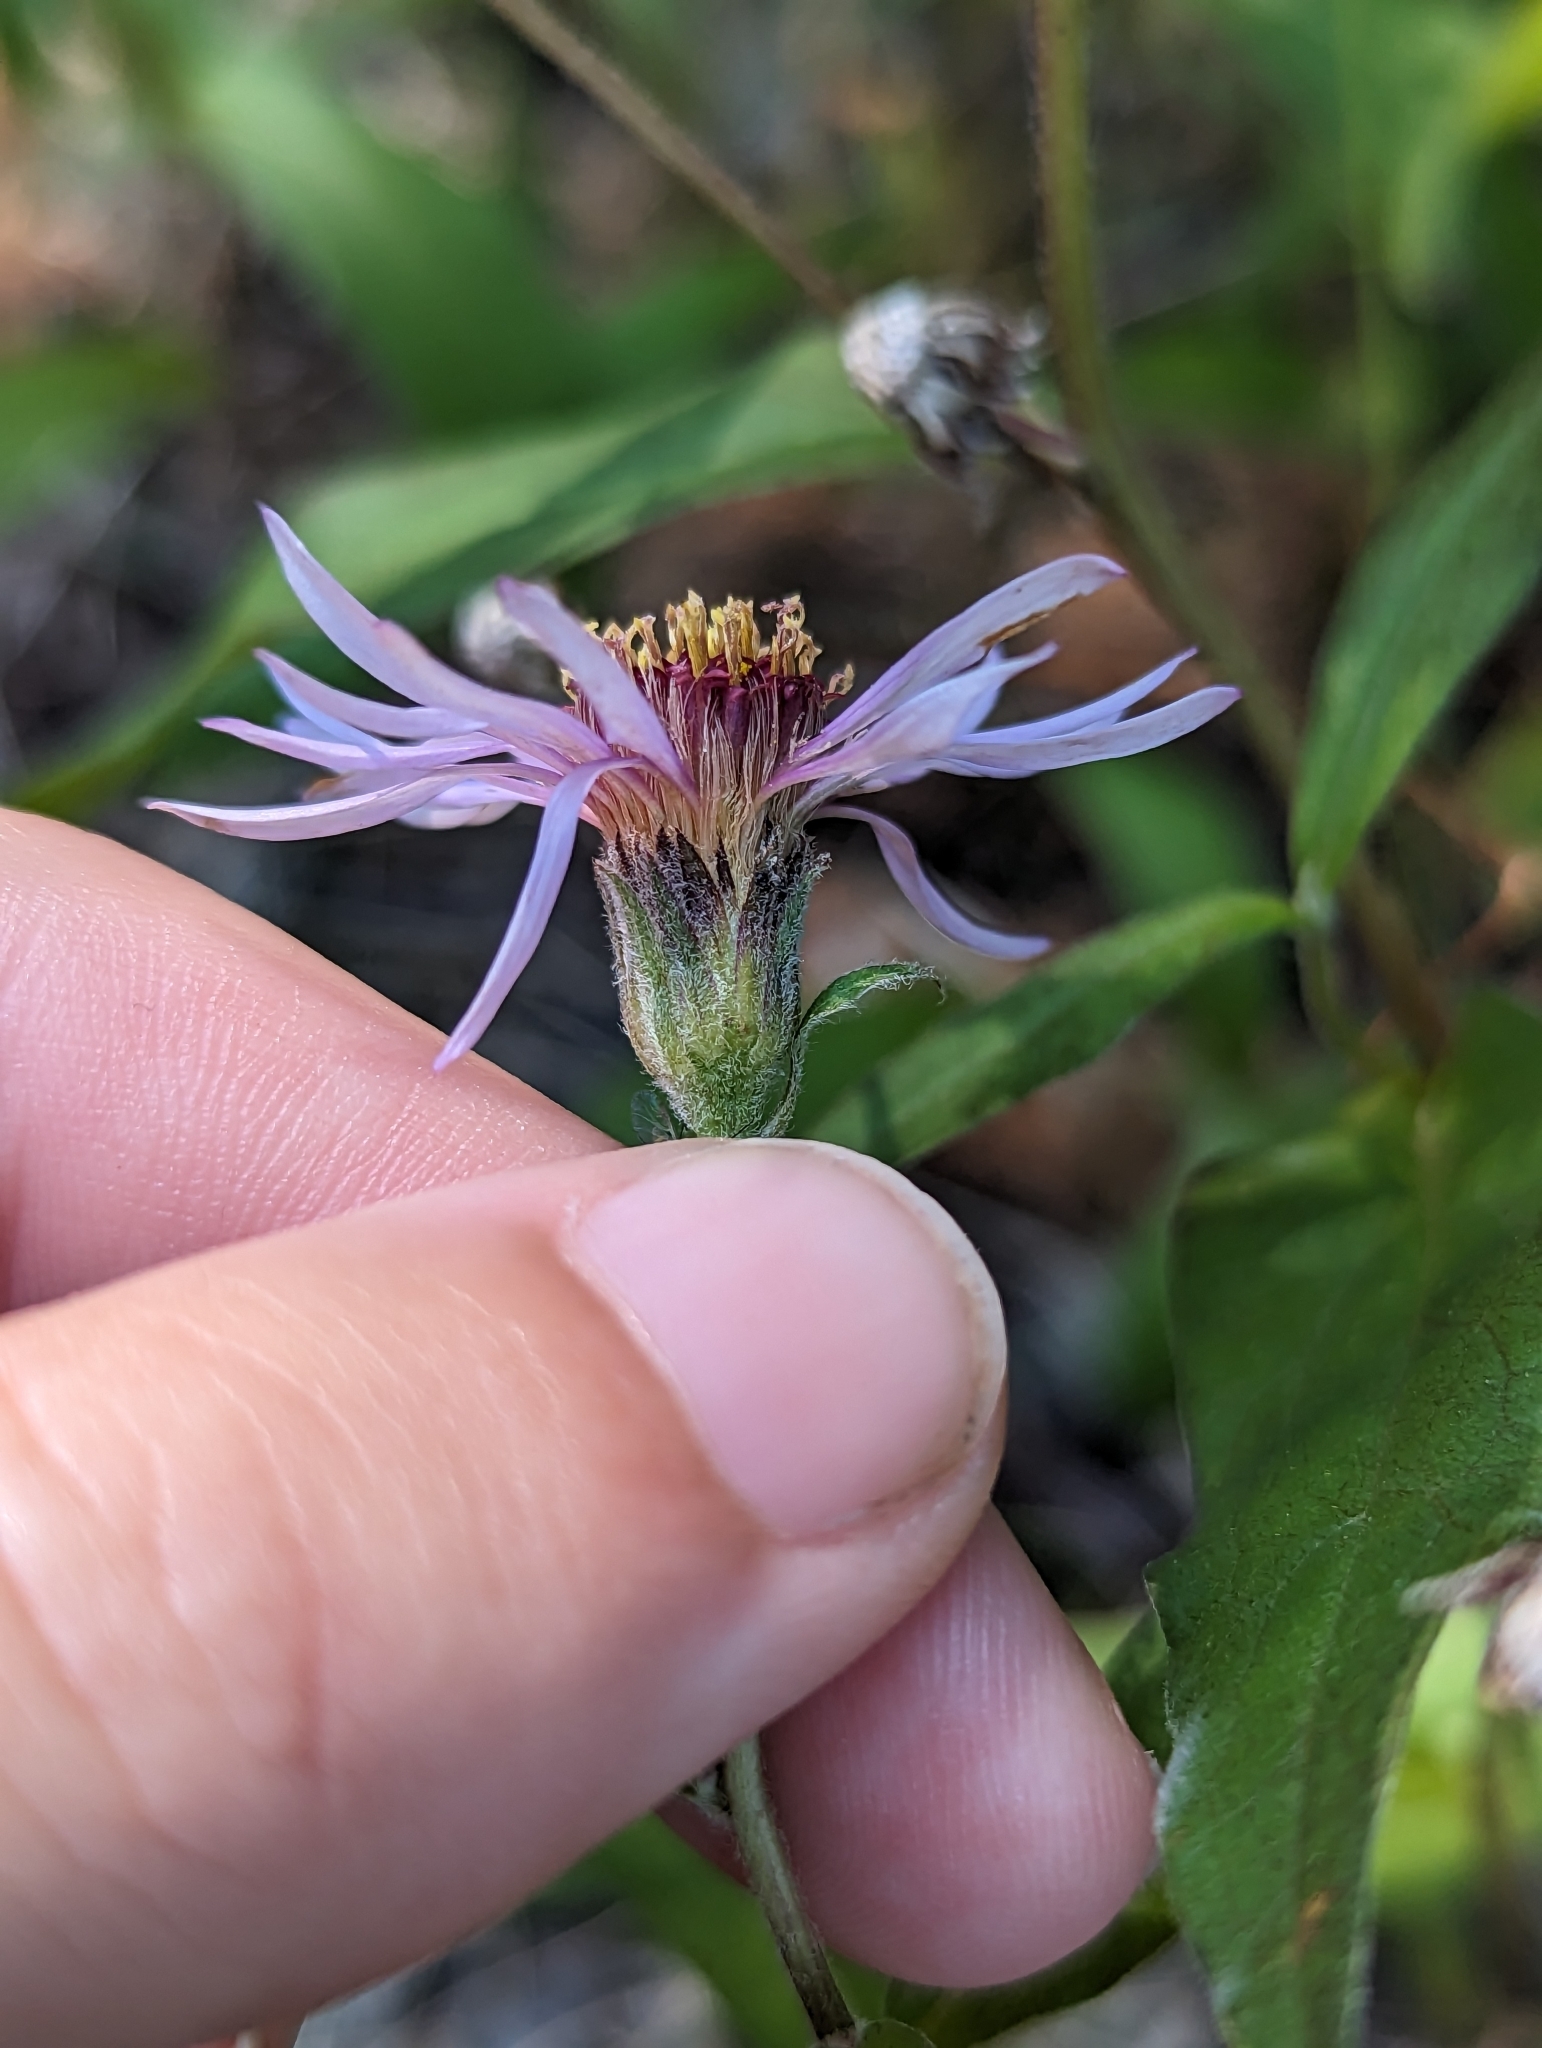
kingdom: Plantae
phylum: Tracheophyta
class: Magnoliopsida
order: Asterales
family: Asteraceae
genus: Eurybia
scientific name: Eurybia sibirica
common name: Arctic aster
